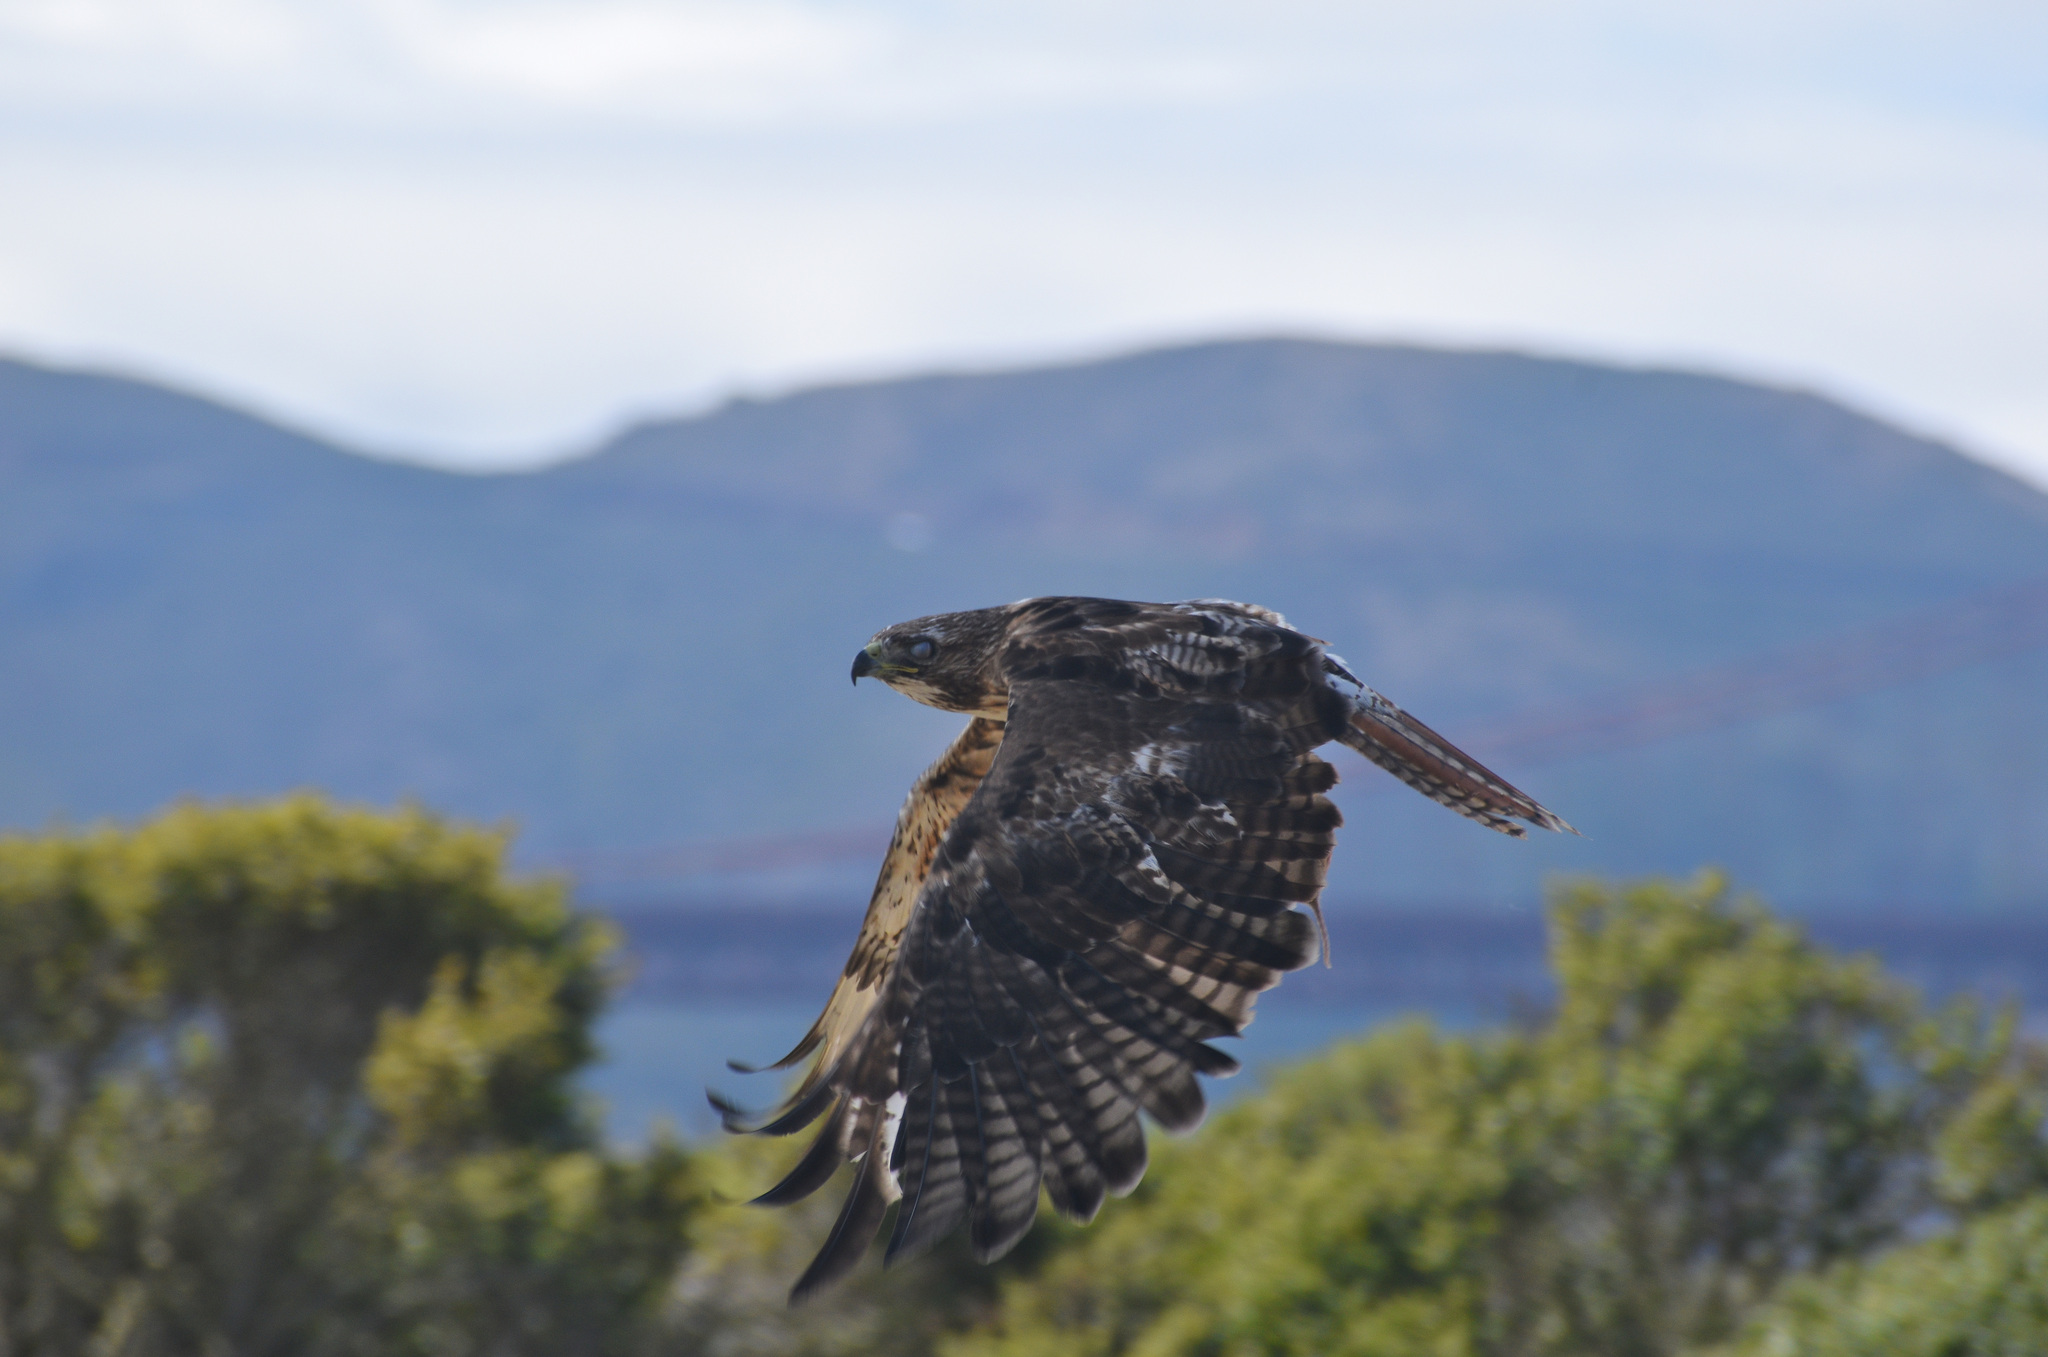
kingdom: Animalia
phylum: Chordata
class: Aves
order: Accipitriformes
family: Accipitridae
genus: Buteo
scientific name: Buteo jamaicensis
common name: Red-tailed hawk
